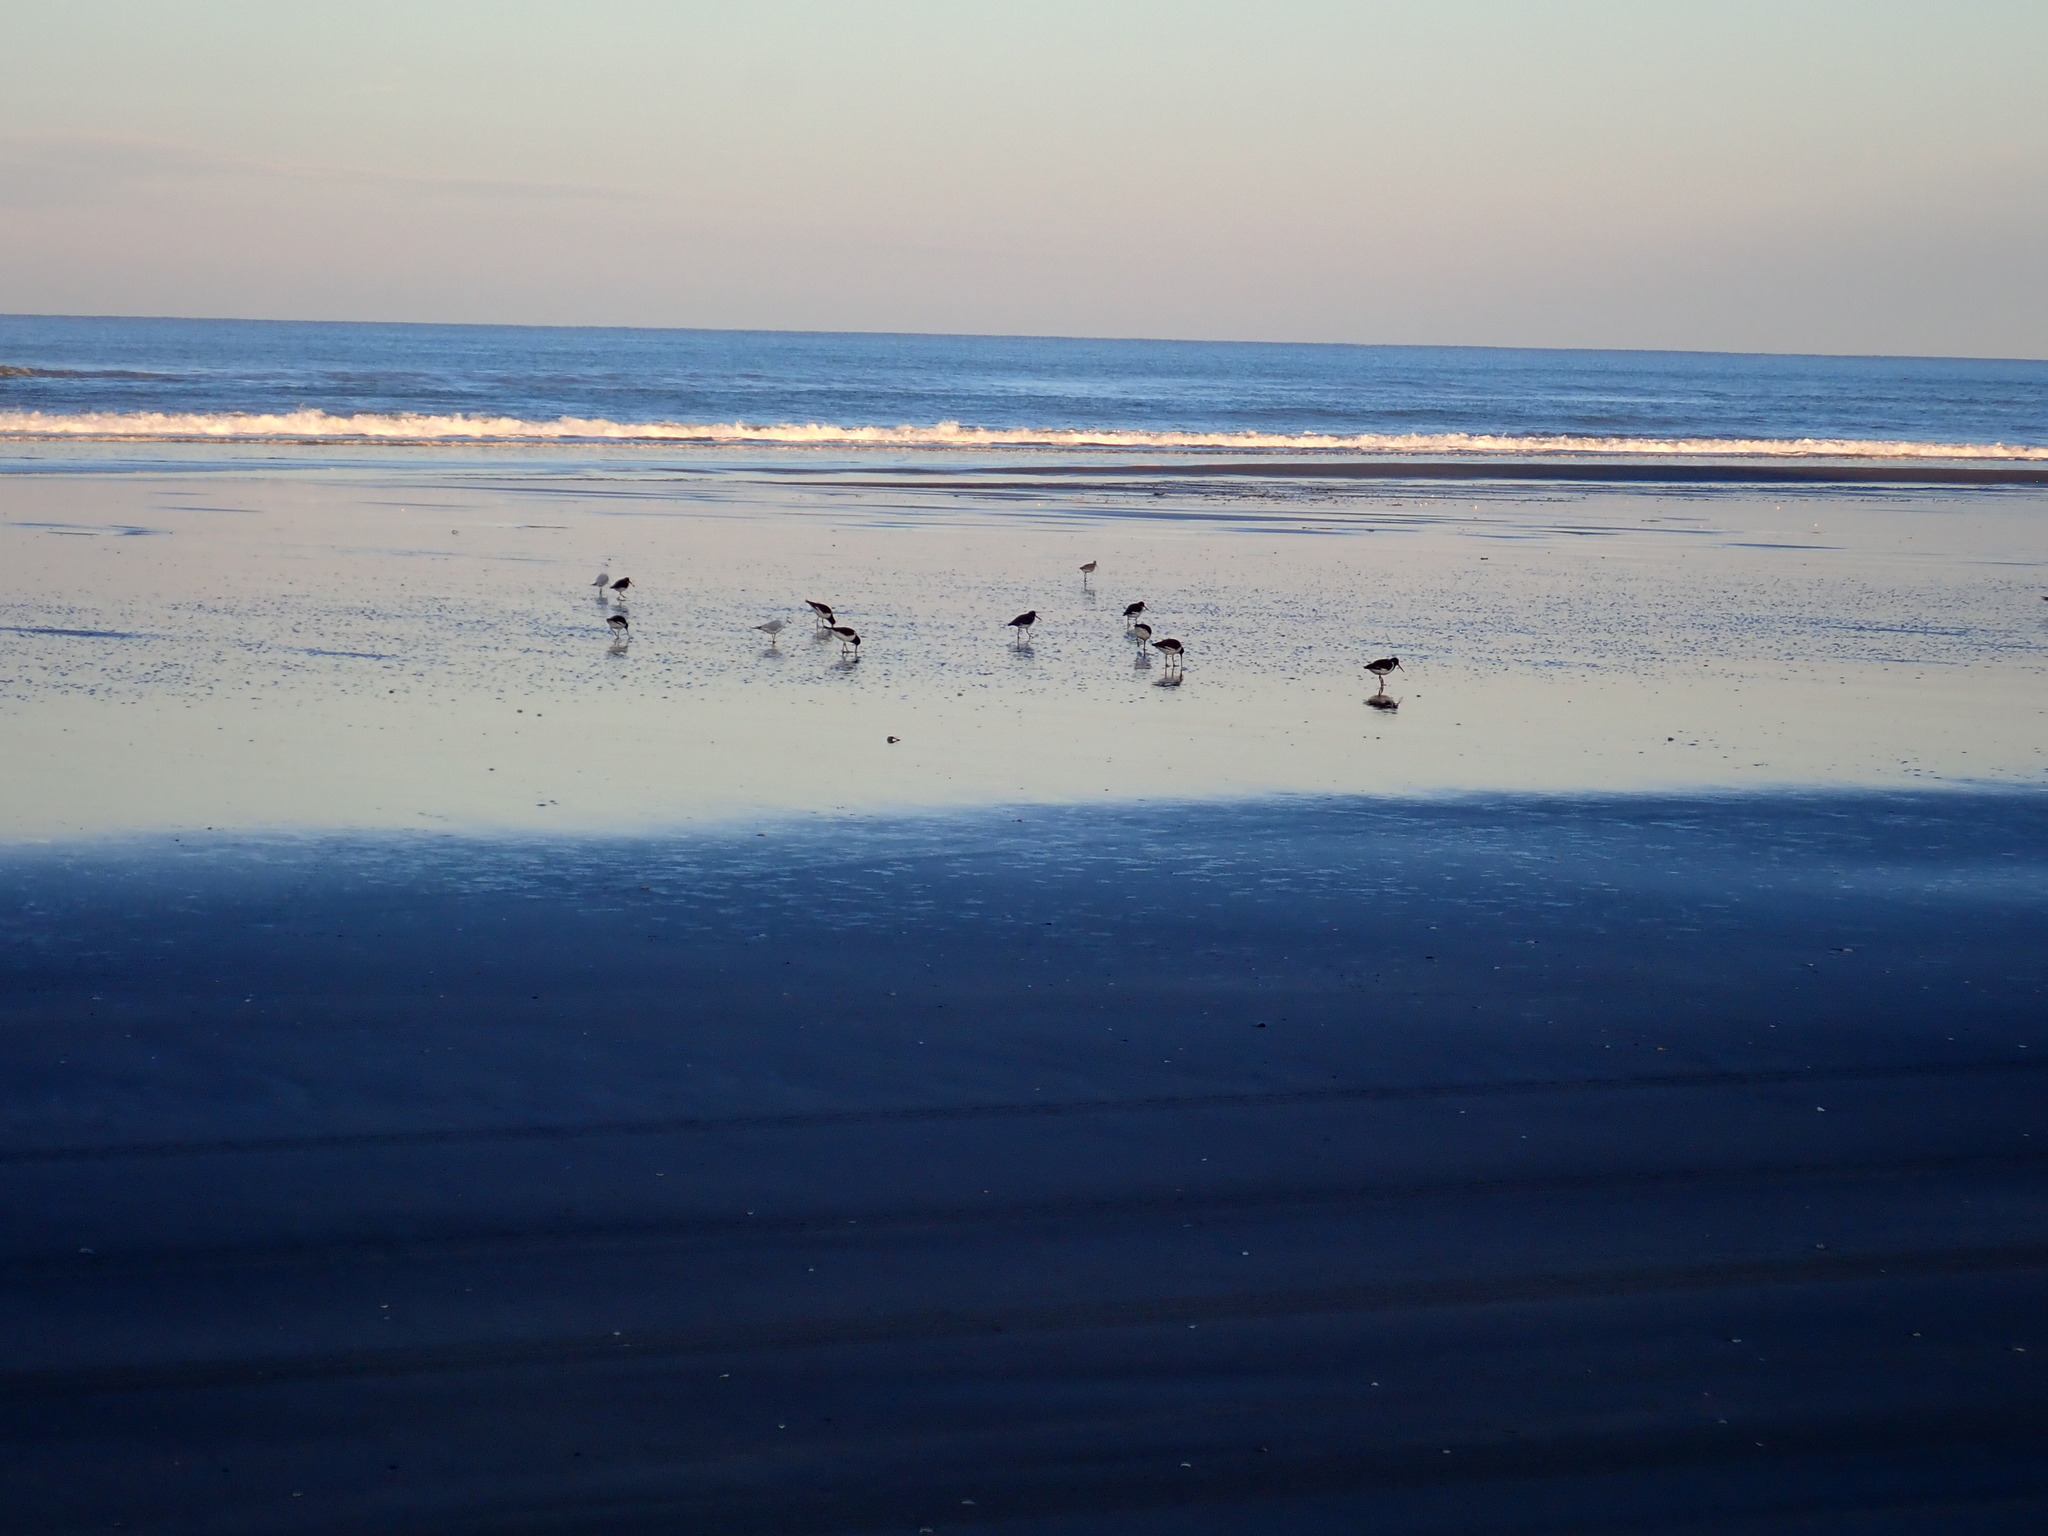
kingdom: Animalia
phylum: Chordata
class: Aves
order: Charadriiformes
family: Haematopodidae
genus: Haematopus
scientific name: Haematopus finschi
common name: South island oystercatcher
